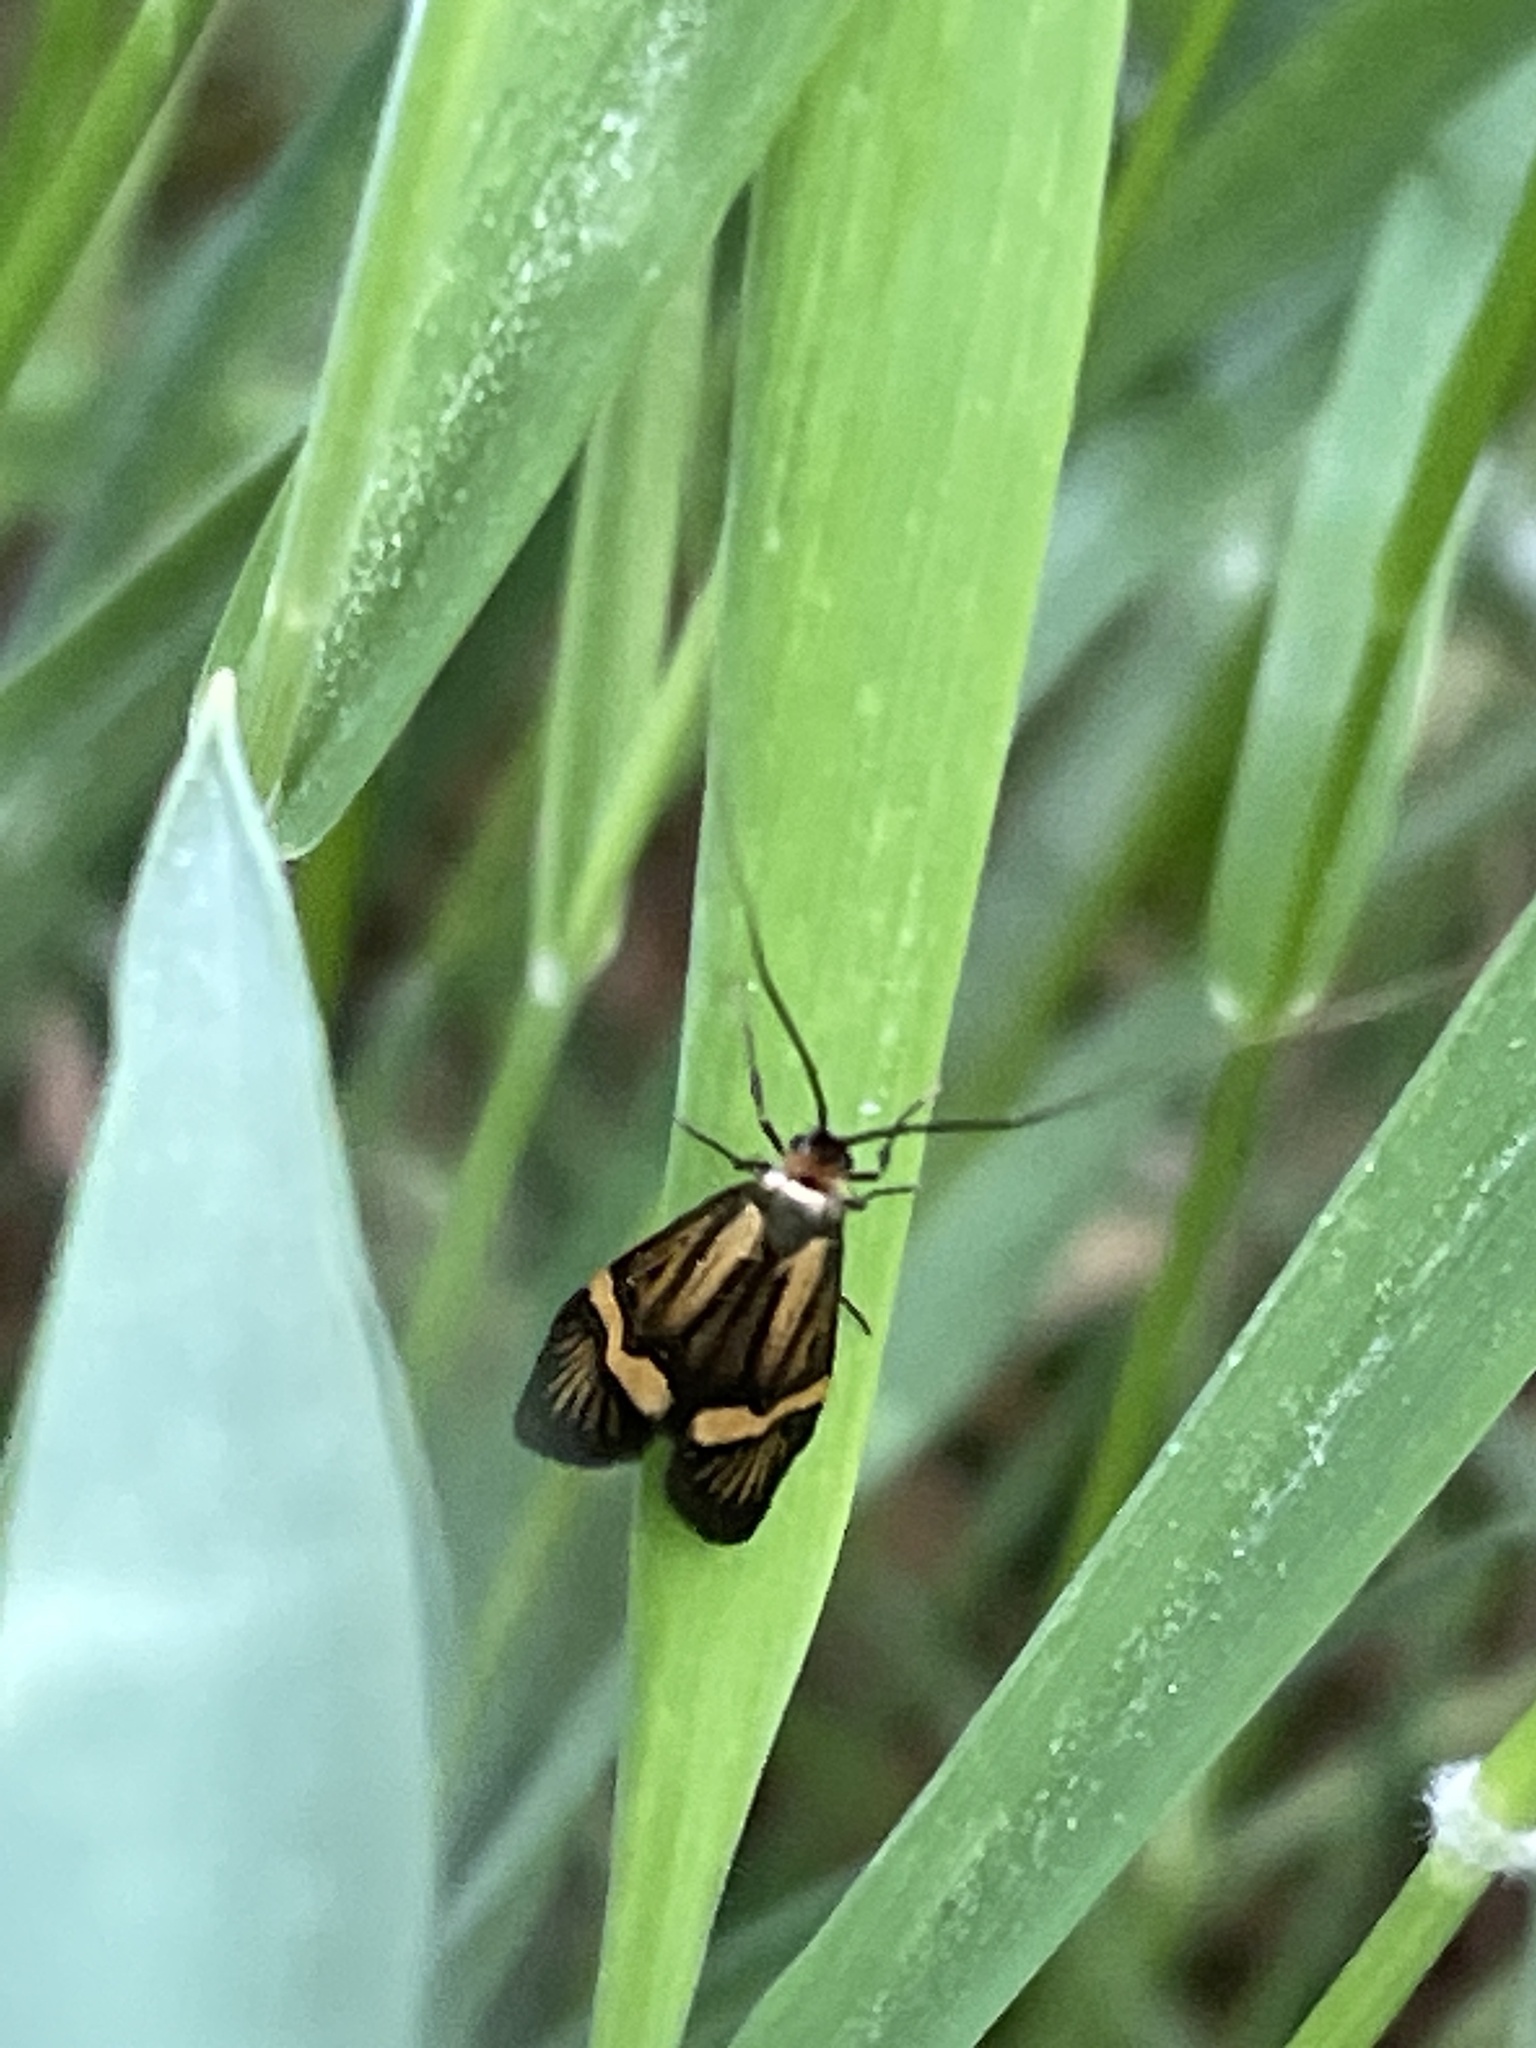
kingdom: Animalia
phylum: Arthropoda
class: Insecta
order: Lepidoptera
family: Adelidae
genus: Nemophora
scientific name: Nemophora degeerella
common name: Yellow-barred long-horn
